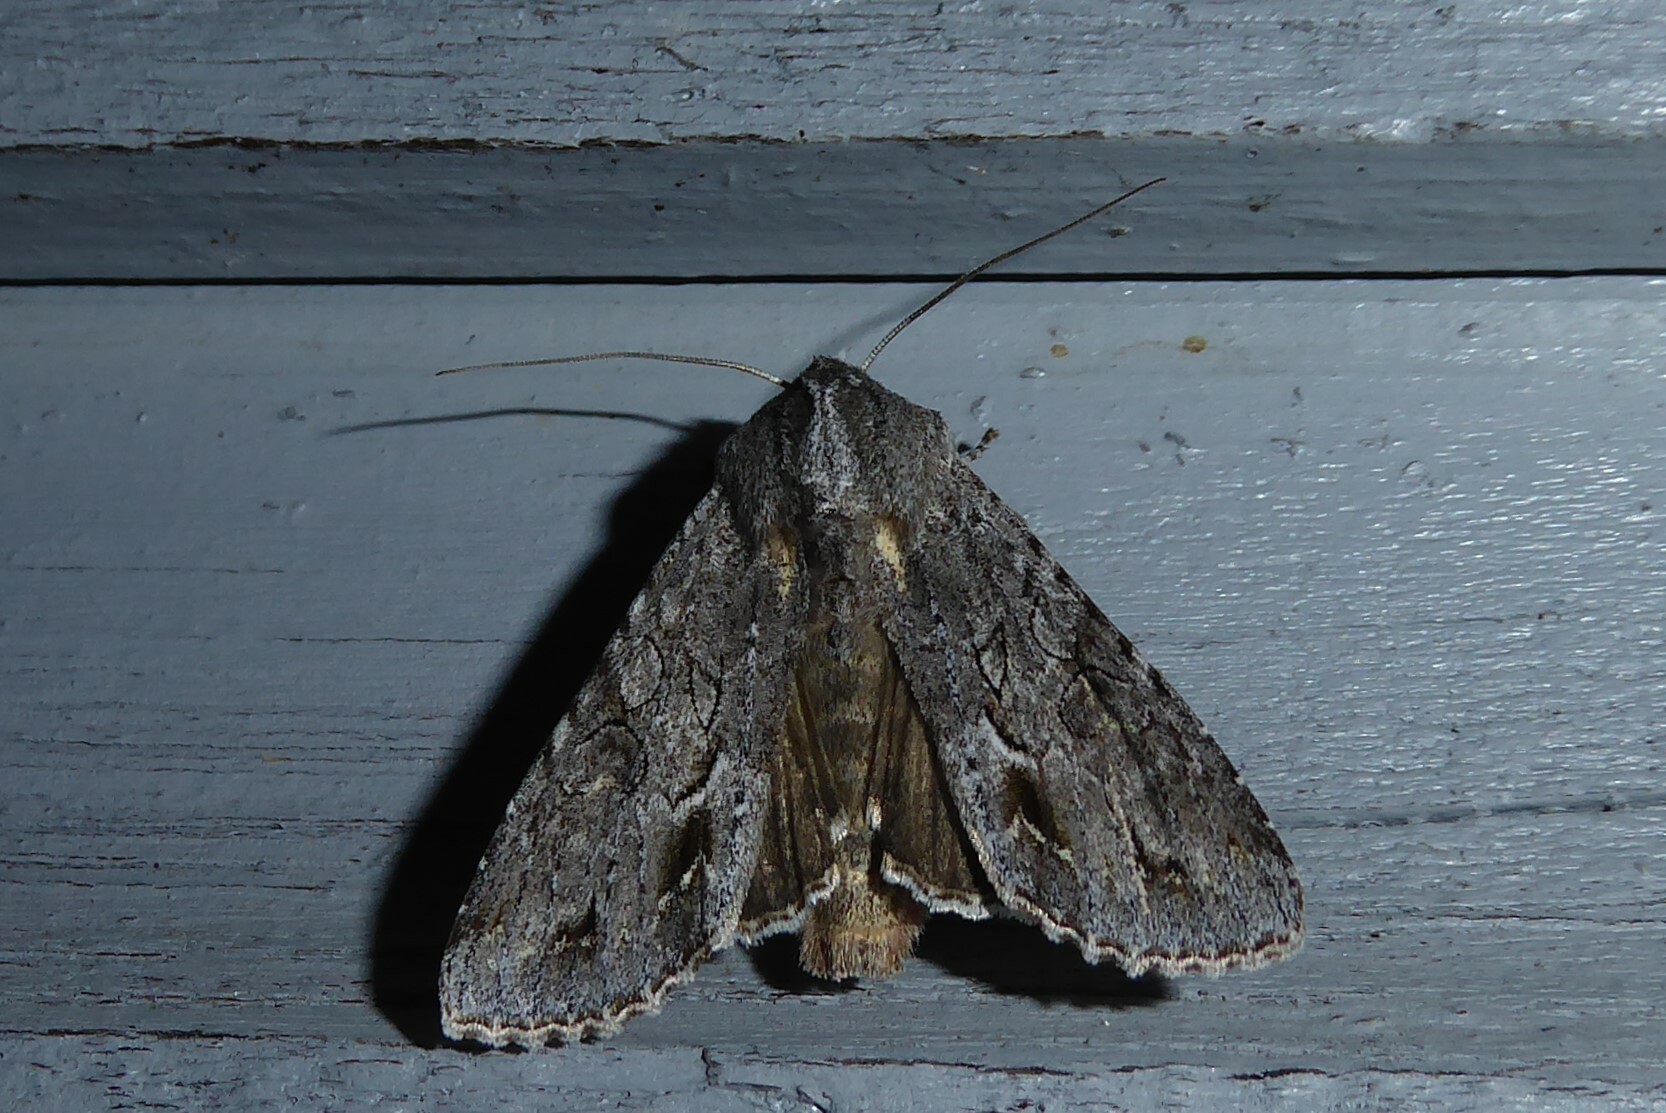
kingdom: Animalia
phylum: Arthropoda
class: Insecta
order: Lepidoptera
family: Noctuidae
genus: Ichneutica
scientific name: Ichneutica
